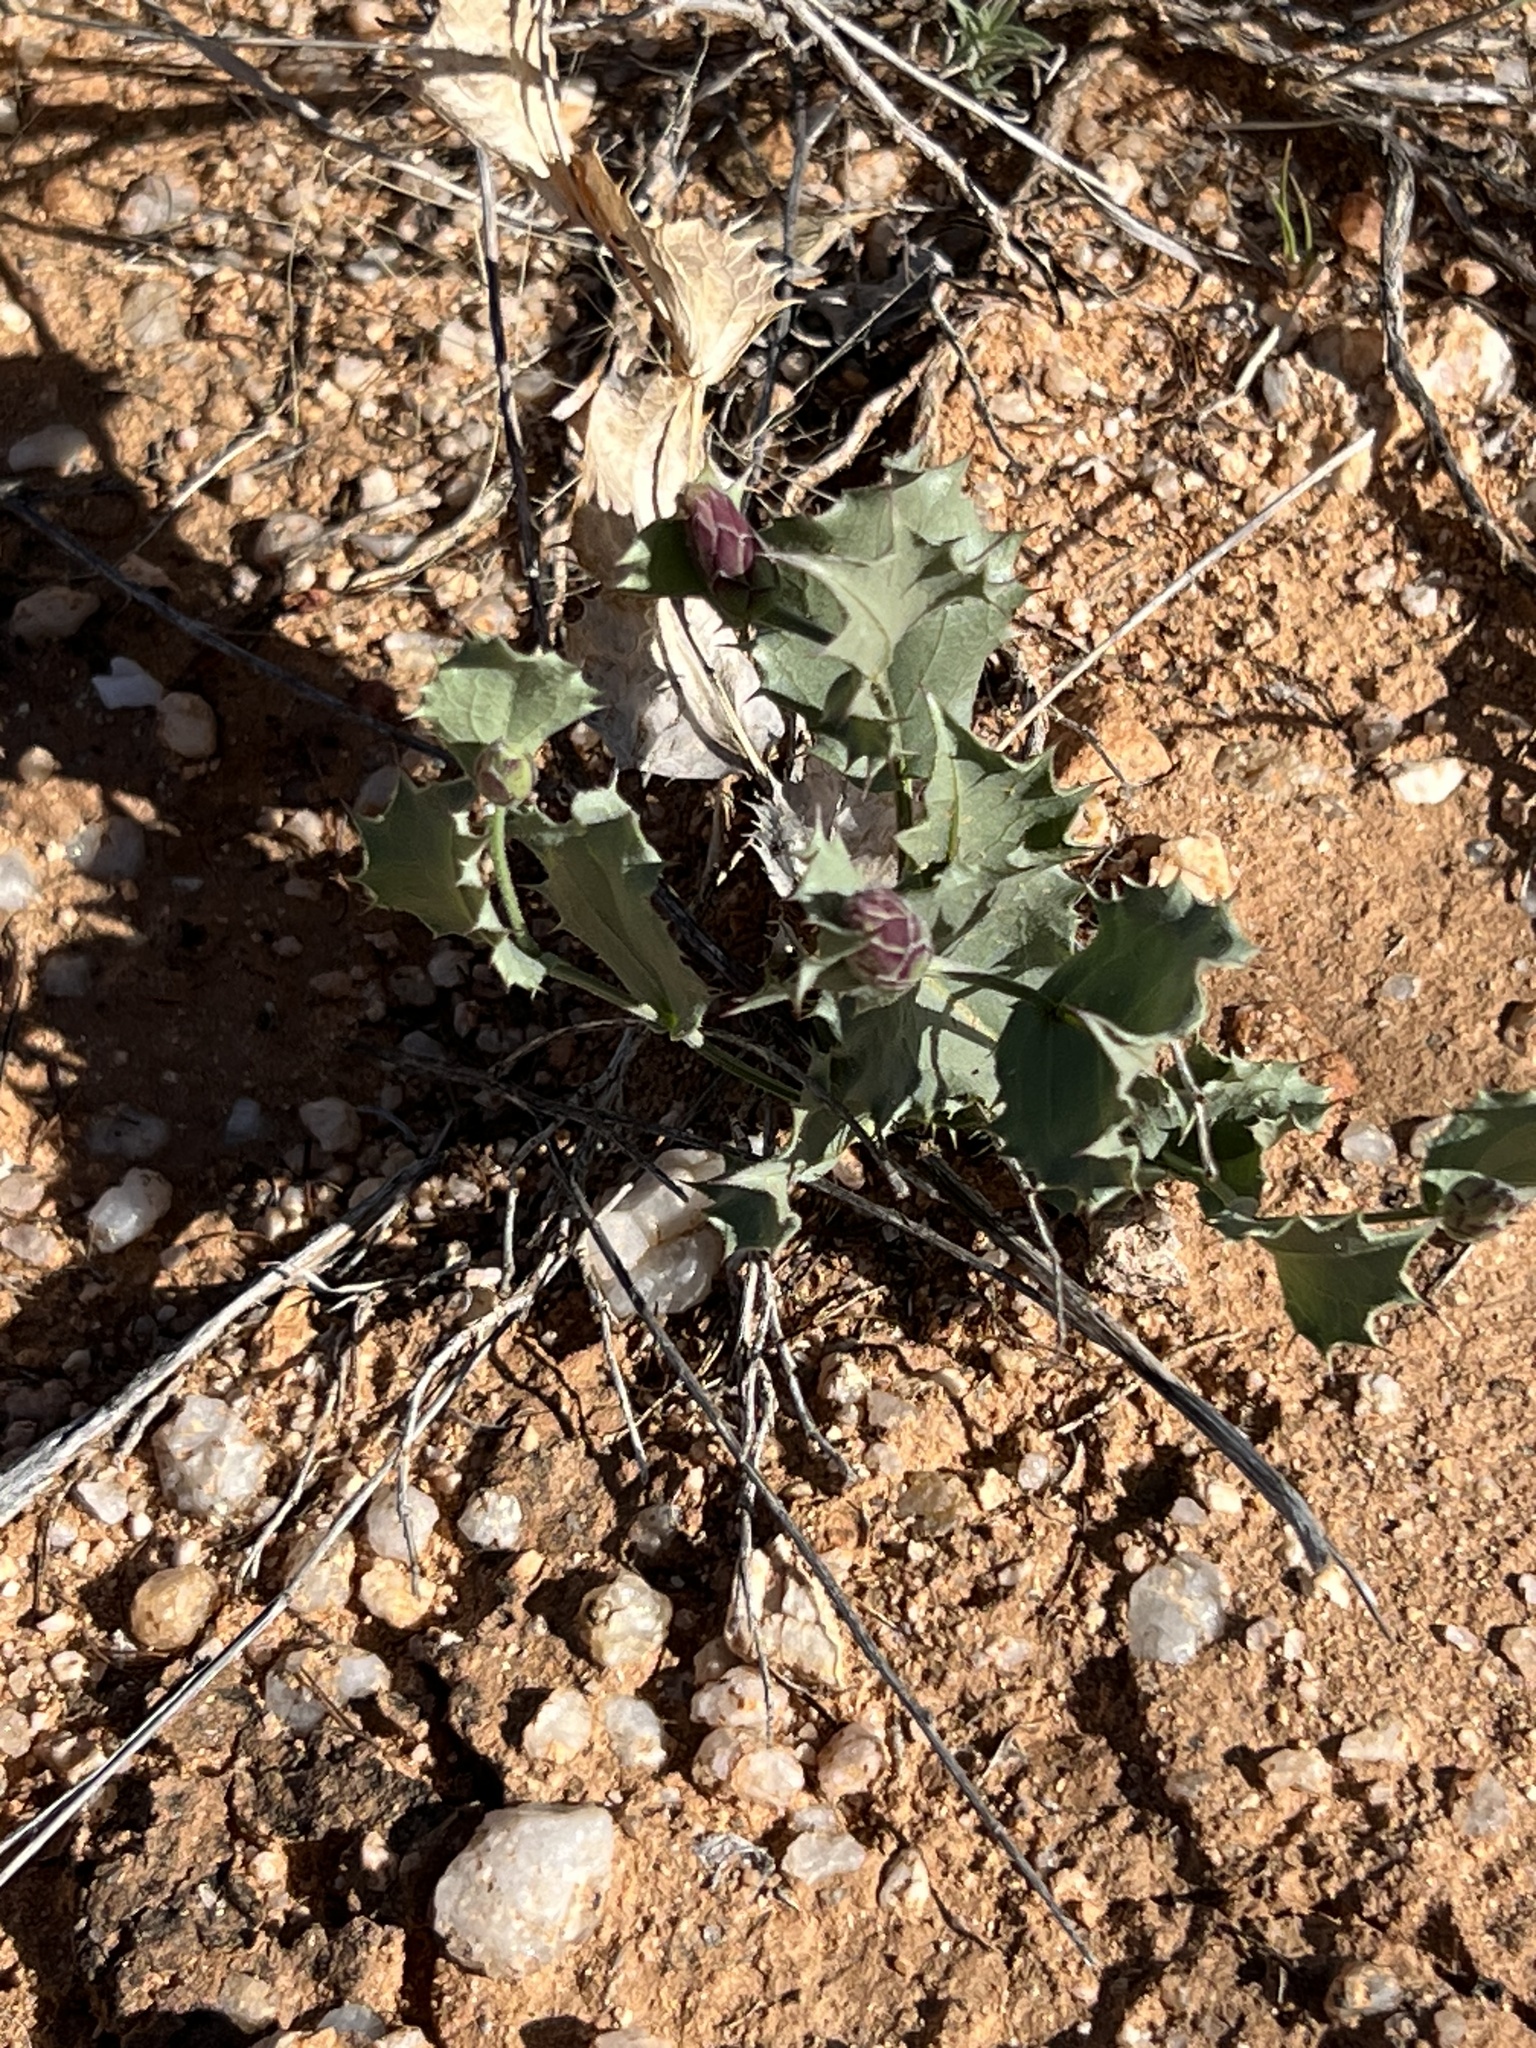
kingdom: Plantae
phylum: Tracheophyta
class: Magnoliopsida
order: Asterales
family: Asteraceae
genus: Acourtia
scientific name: Acourtia nana
